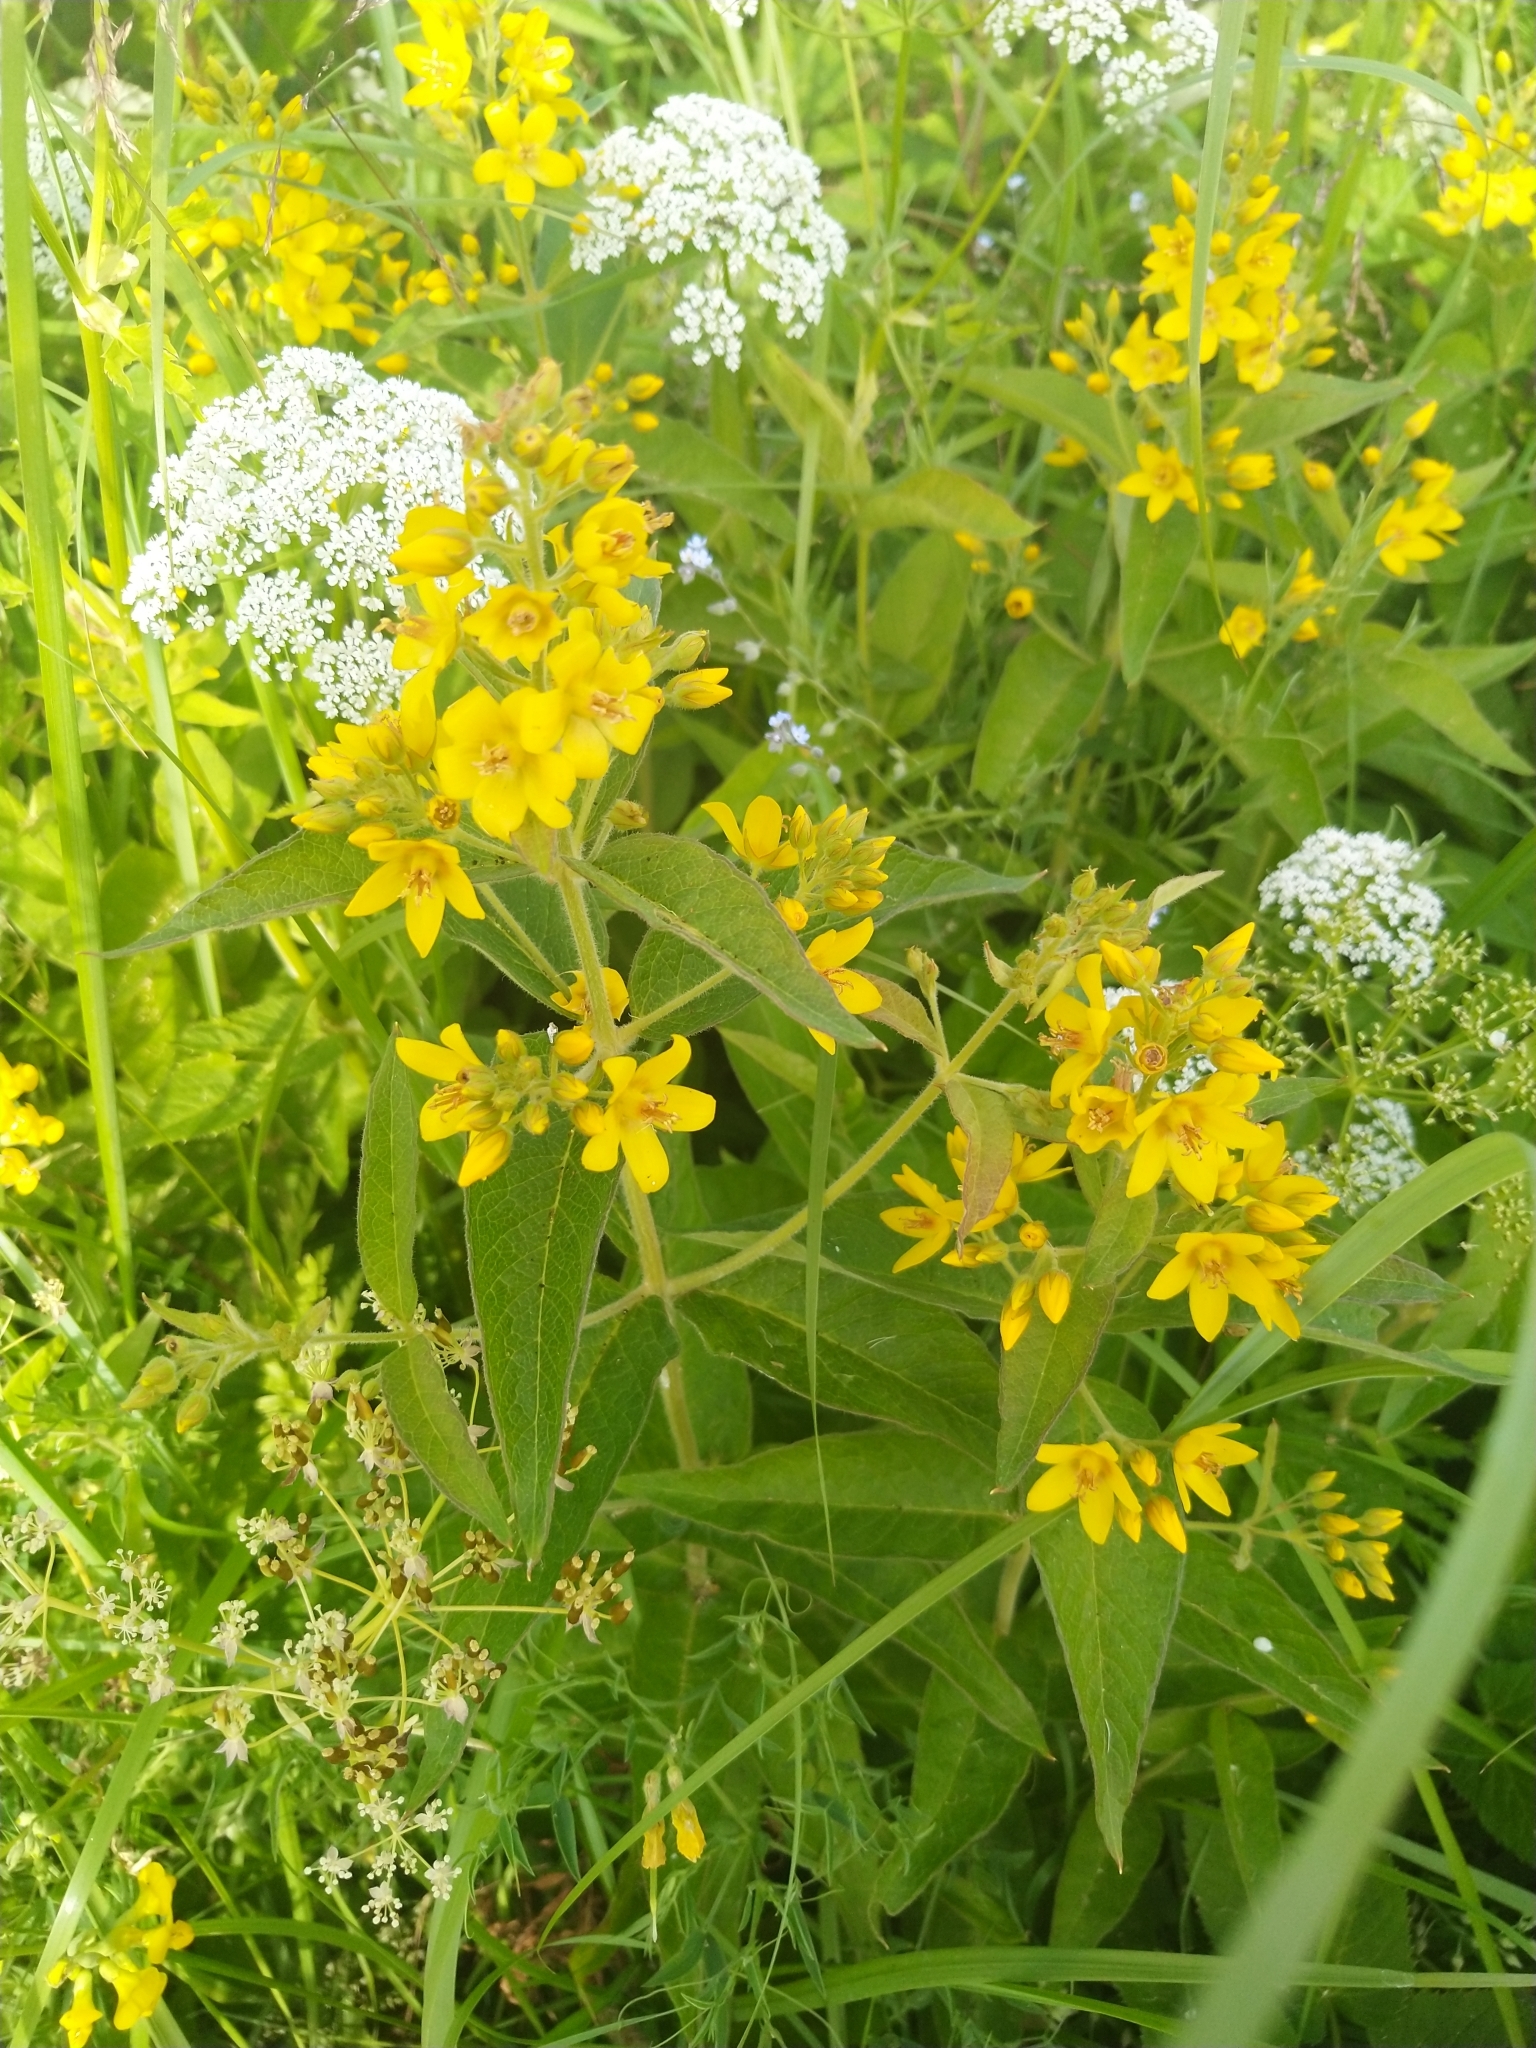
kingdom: Plantae
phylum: Tracheophyta
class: Magnoliopsida
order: Ericales
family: Primulaceae
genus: Lysimachia
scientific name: Lysimachia vulgaris
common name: Yellow loosestrife
